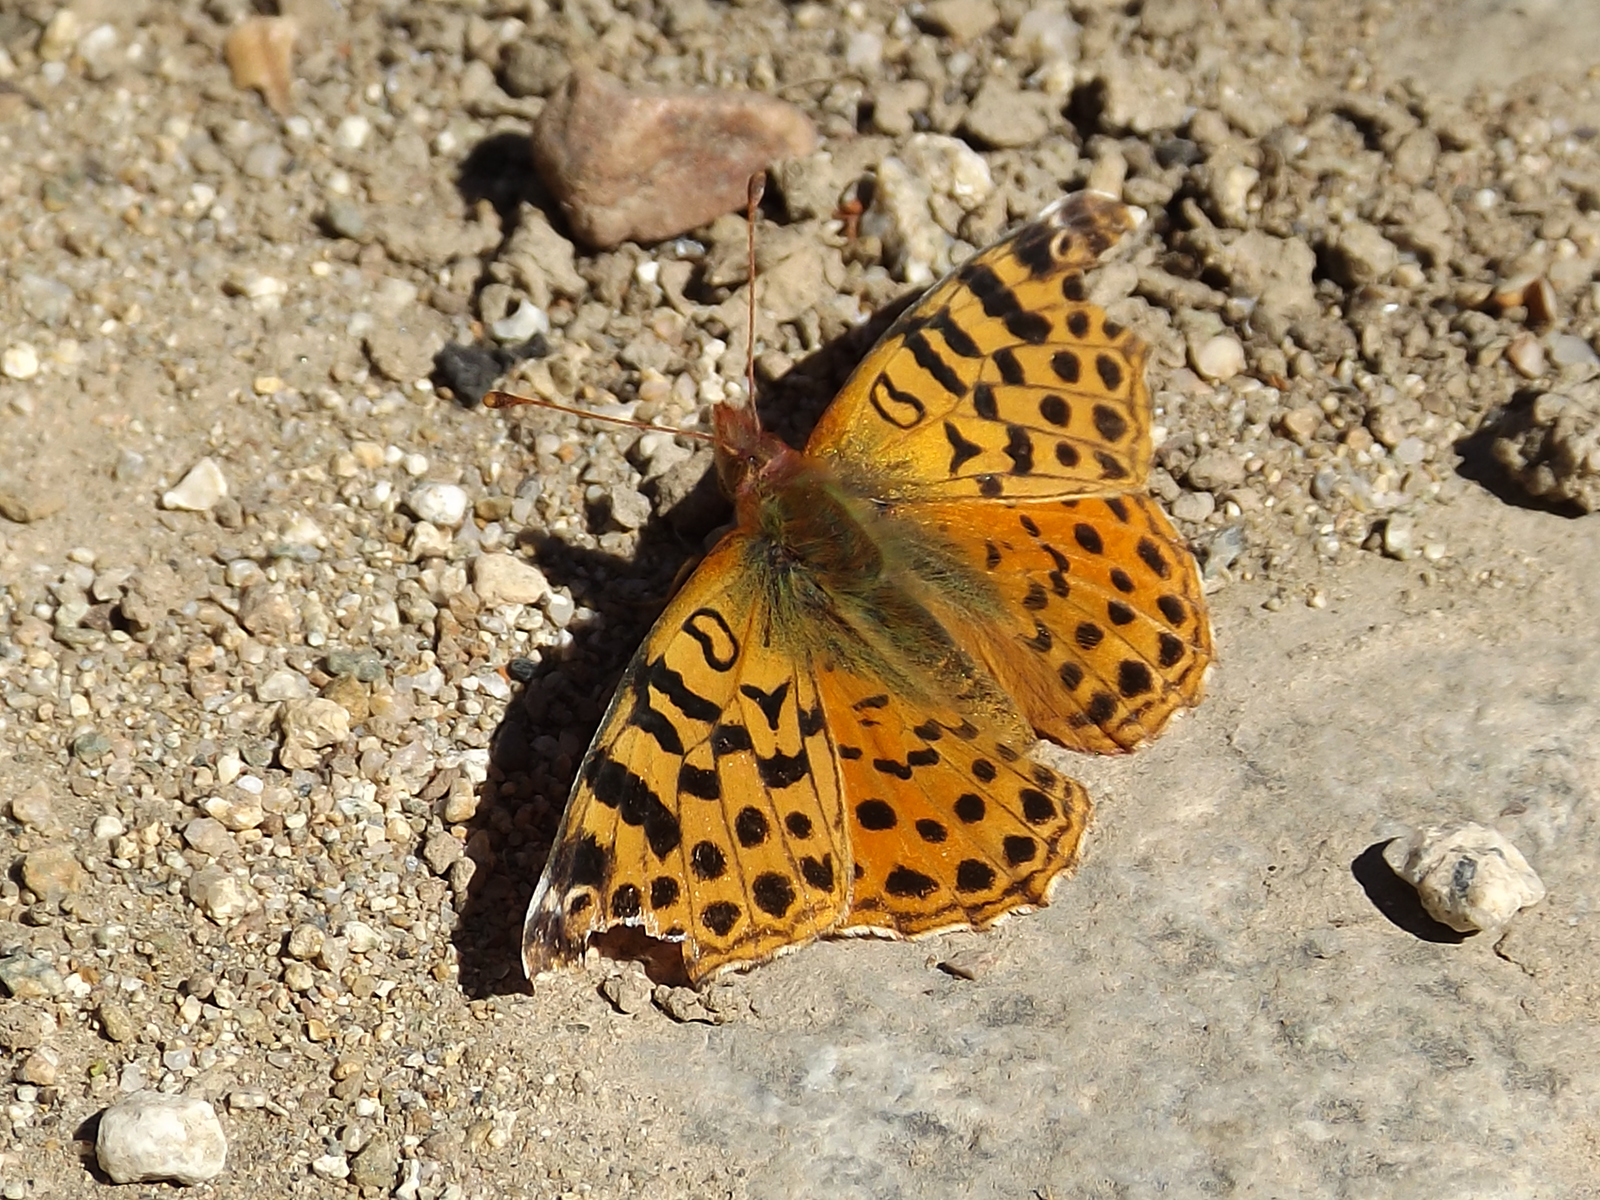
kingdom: Animalia
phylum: Arthropoda
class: Insecta
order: Lepidoptera
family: Nymphalidae
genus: Issoria
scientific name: Issoria Yramea cytheris
